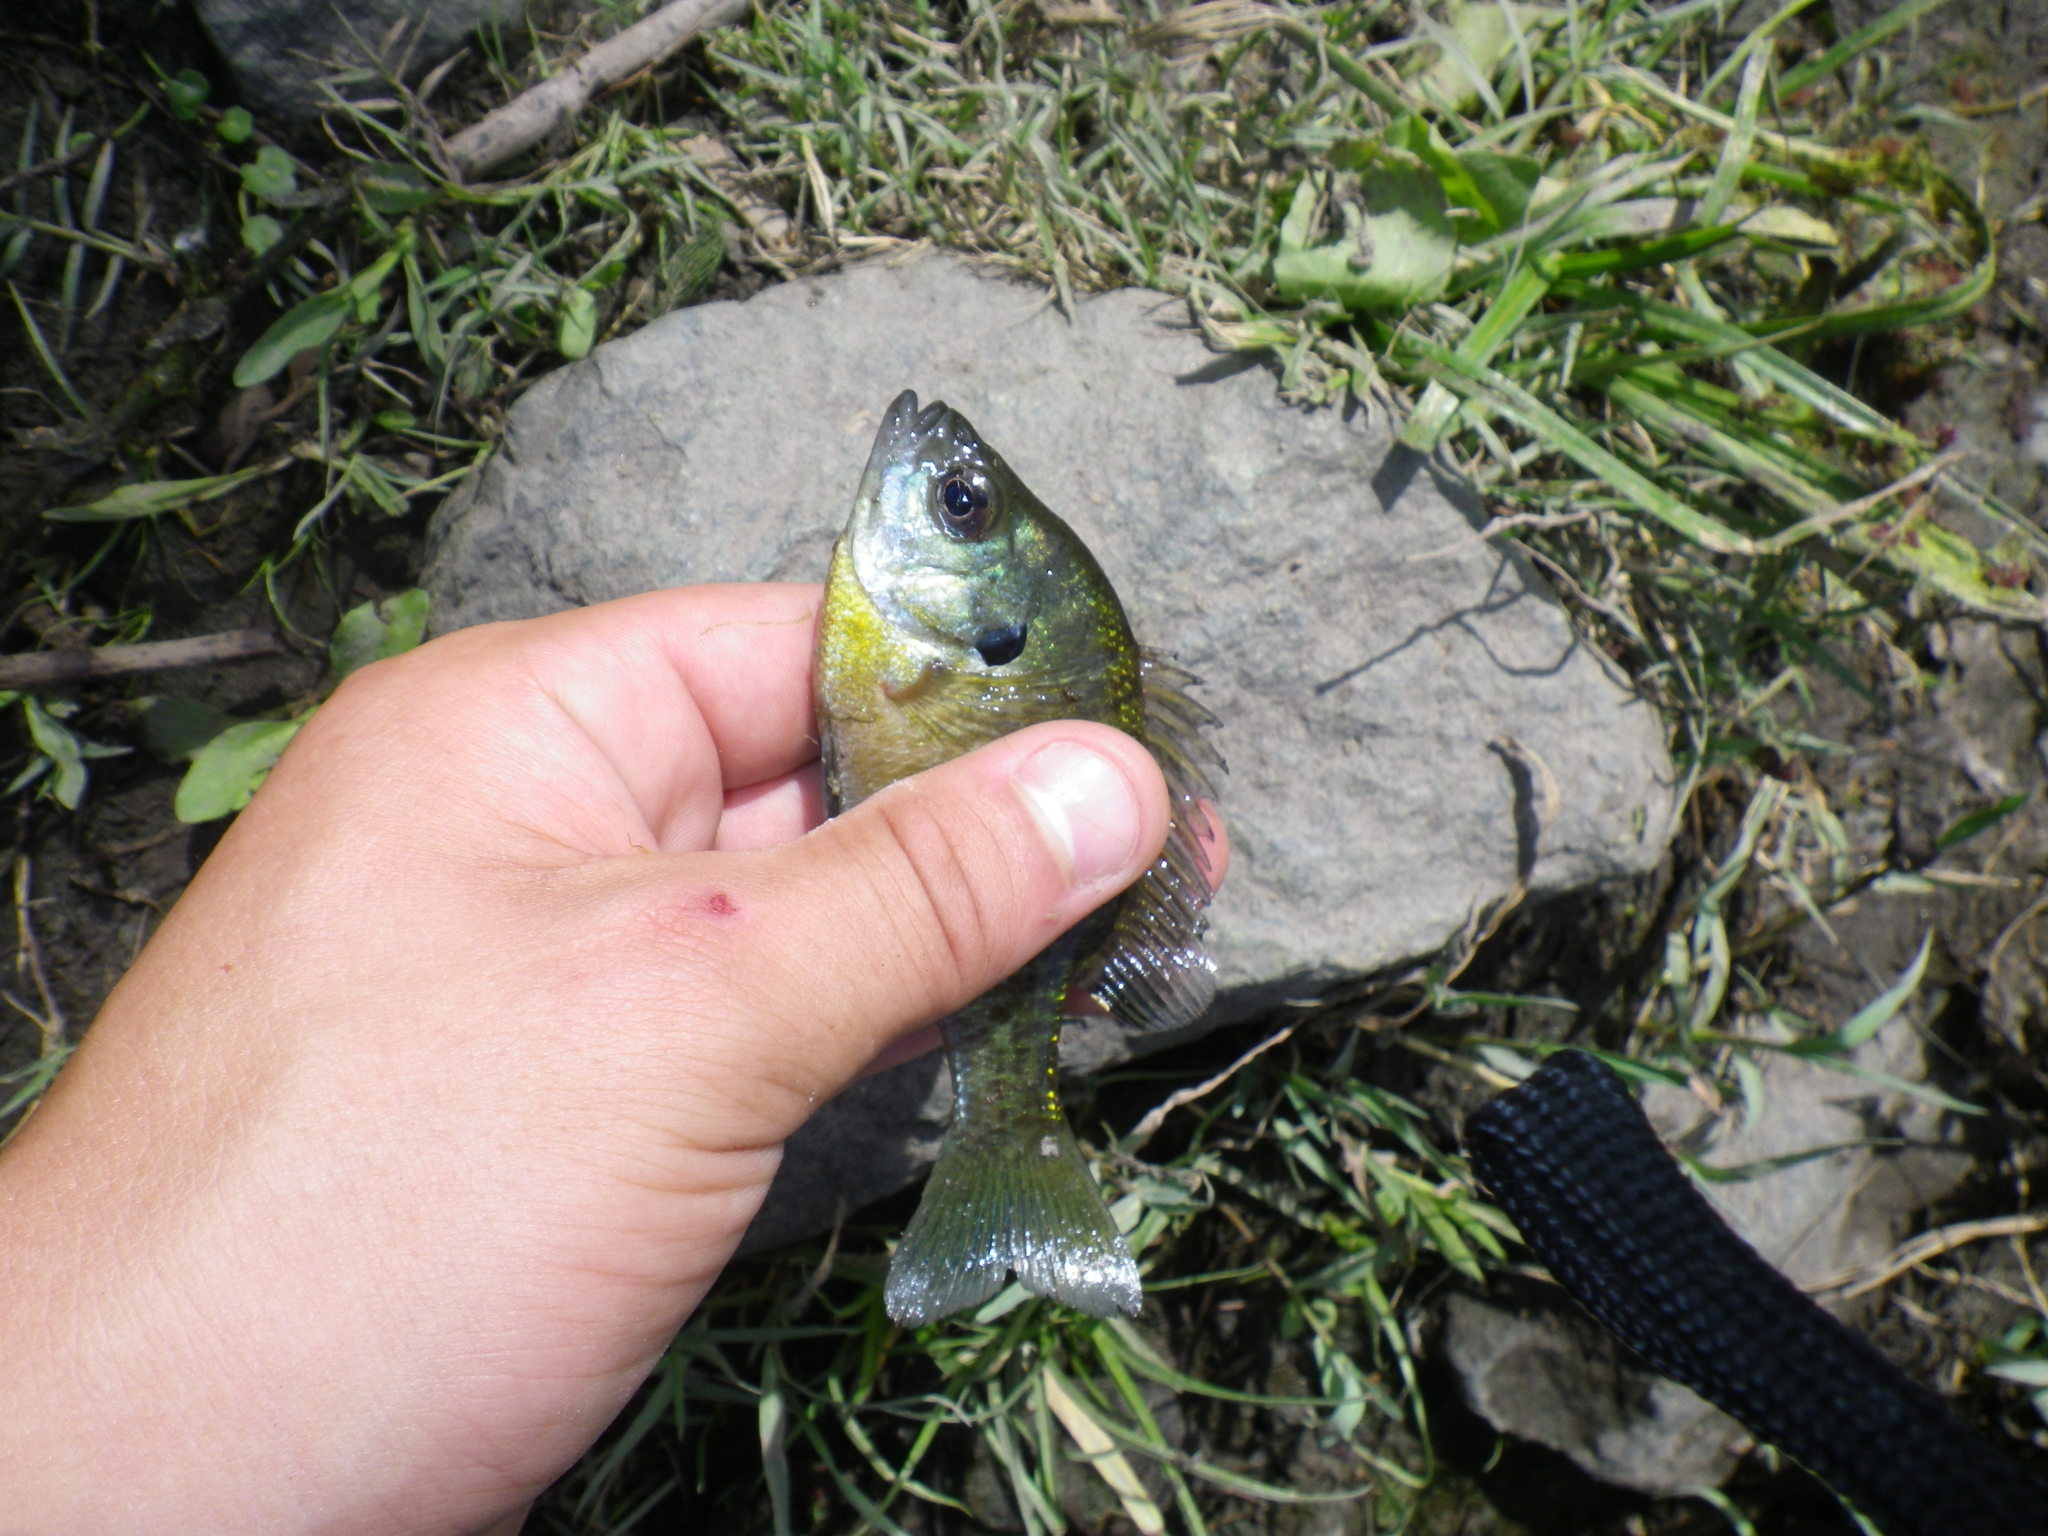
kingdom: Animalia
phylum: Chordata
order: Perciformes
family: Centrarchidae
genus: Lepomis
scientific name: Lepomis macrochirus
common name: Bluegill
